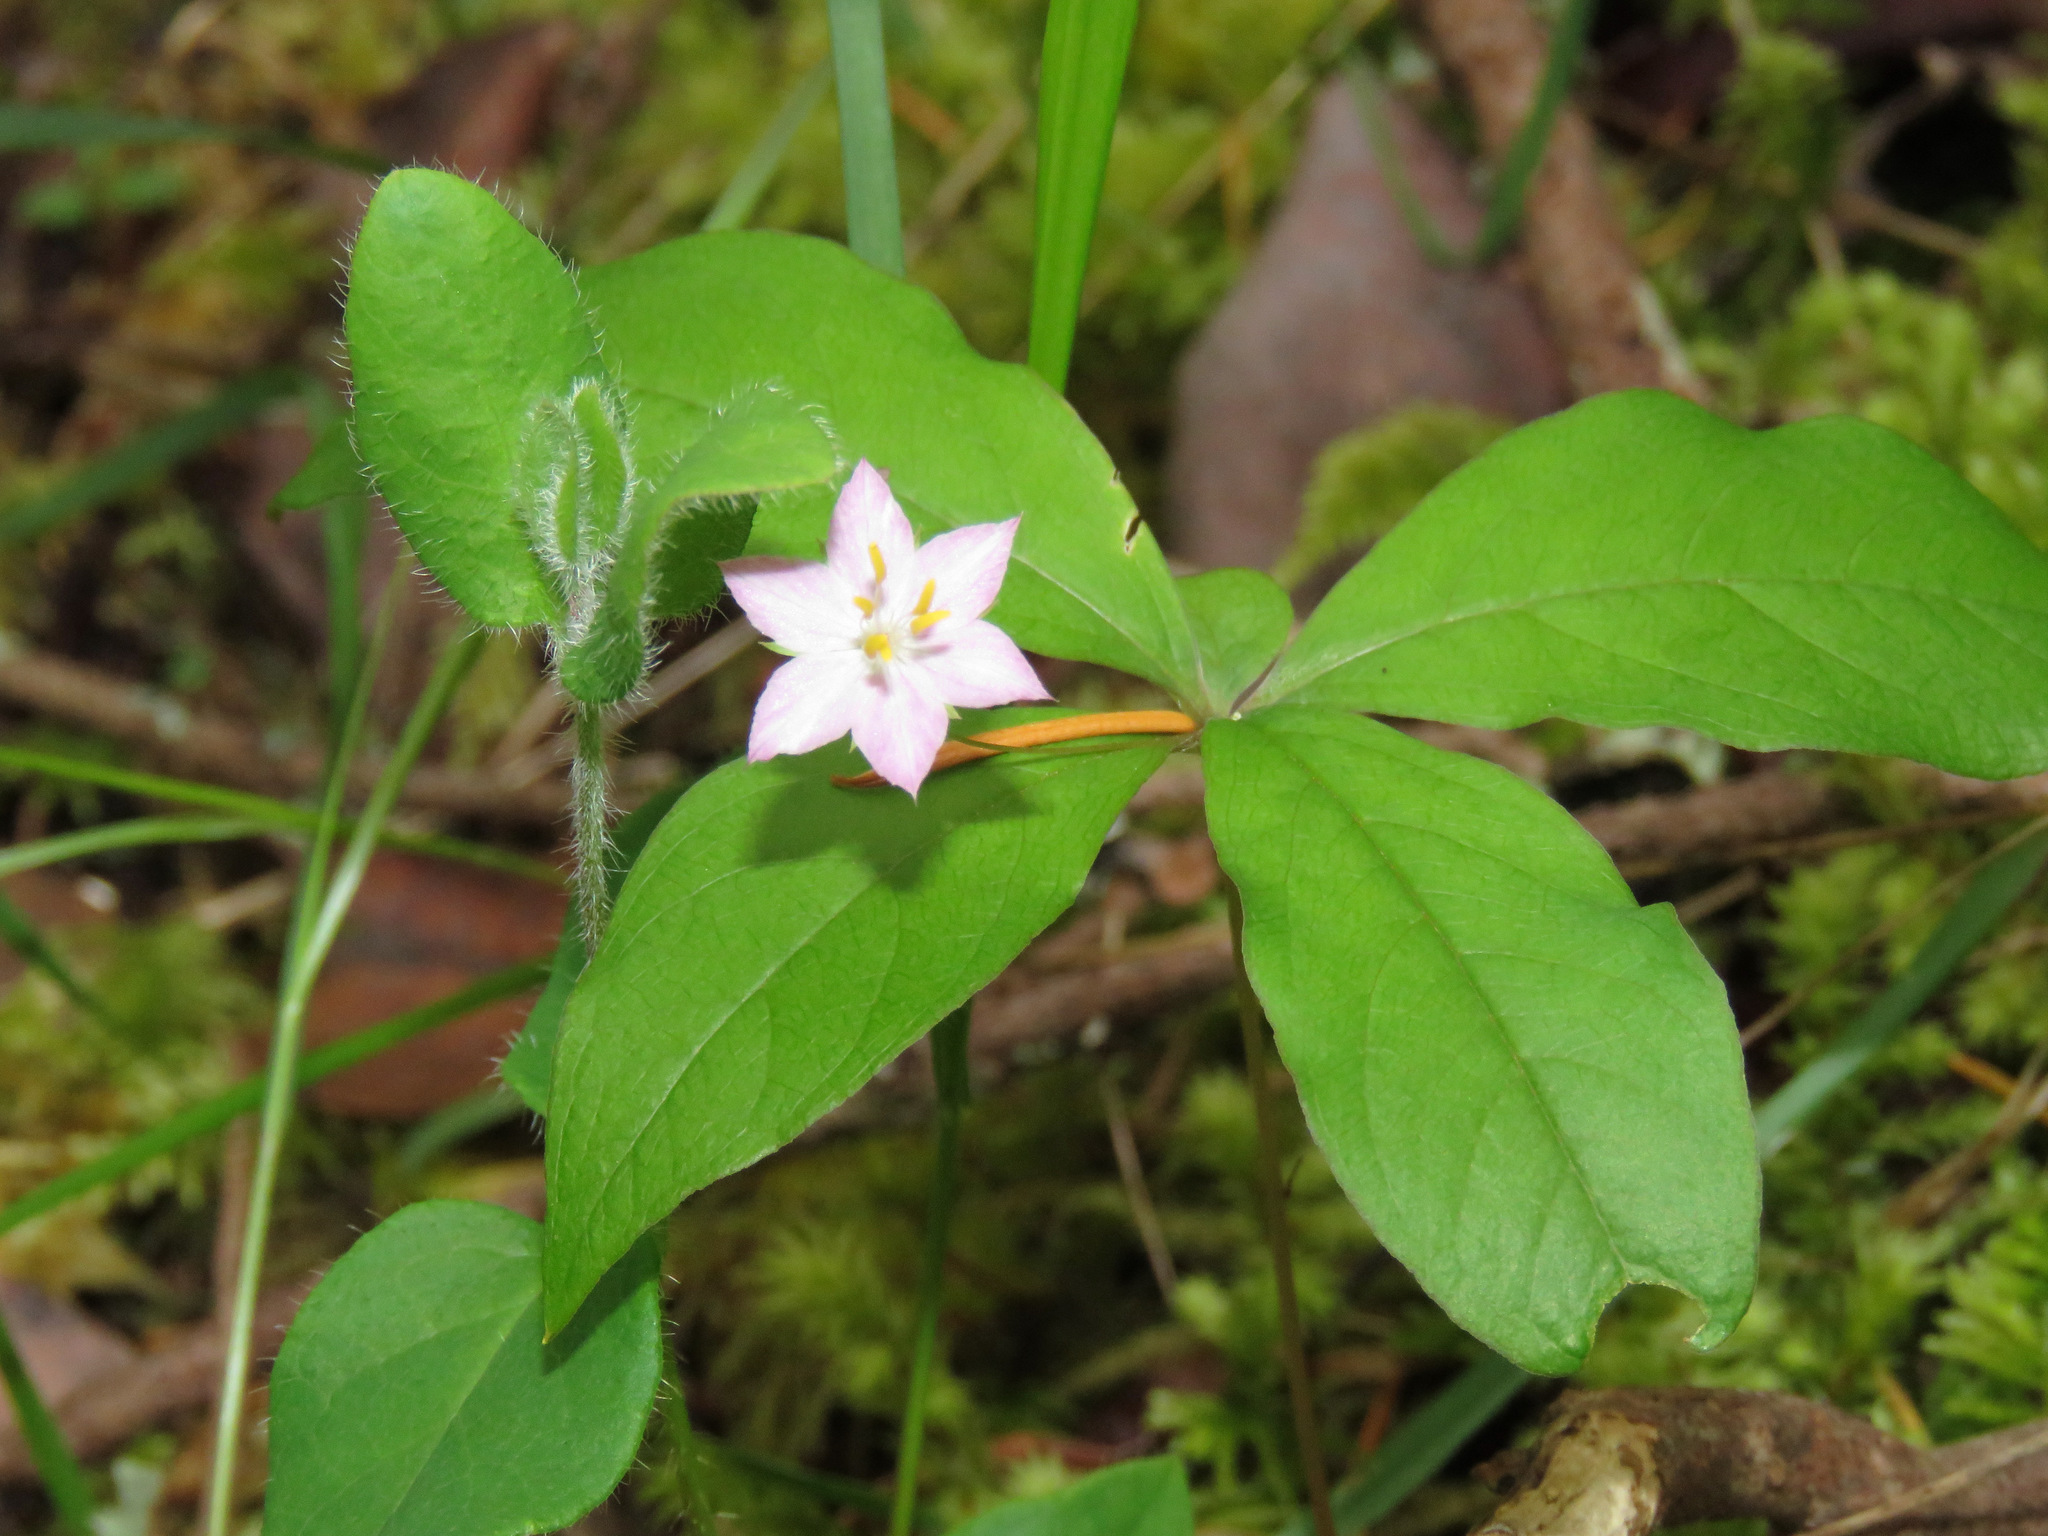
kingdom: Plantae
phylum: Tracheophyta
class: Magnoliopsida
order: Ericales
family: Primulaceae
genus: Lysimachia
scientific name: Lysimachia latifolia
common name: Pacific starflower
